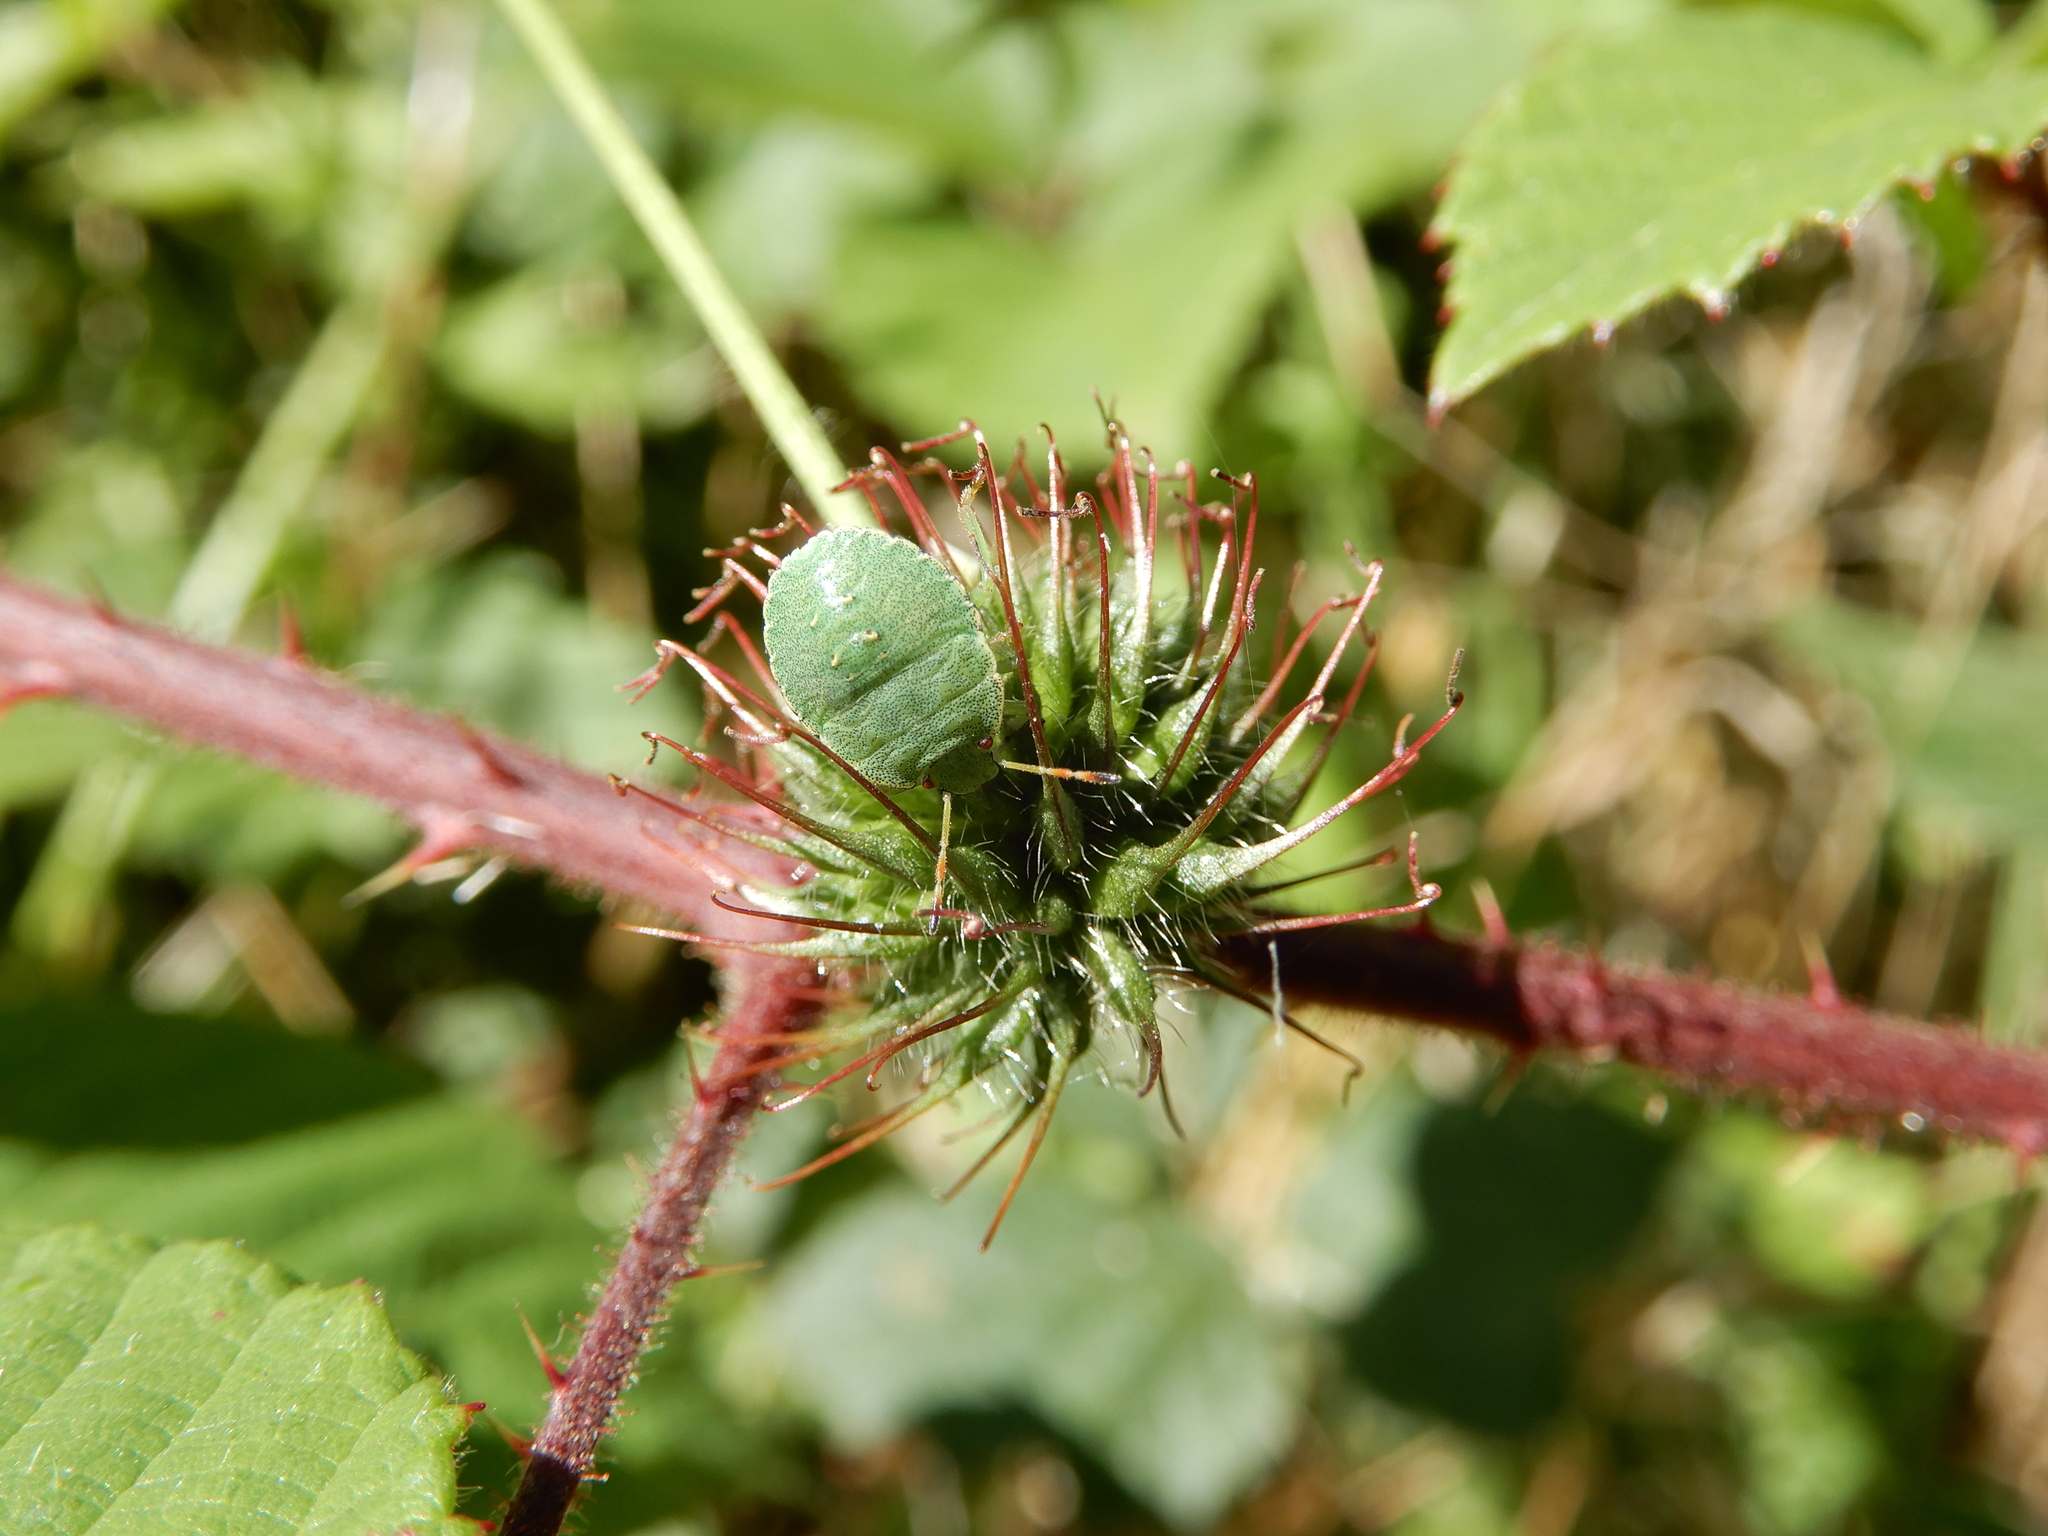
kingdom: Animalia
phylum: Arthropoda
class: Insecta
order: Hemiptera
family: Pentatomidae
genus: Palomena
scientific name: Palomena prasina
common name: Green shieldbug
